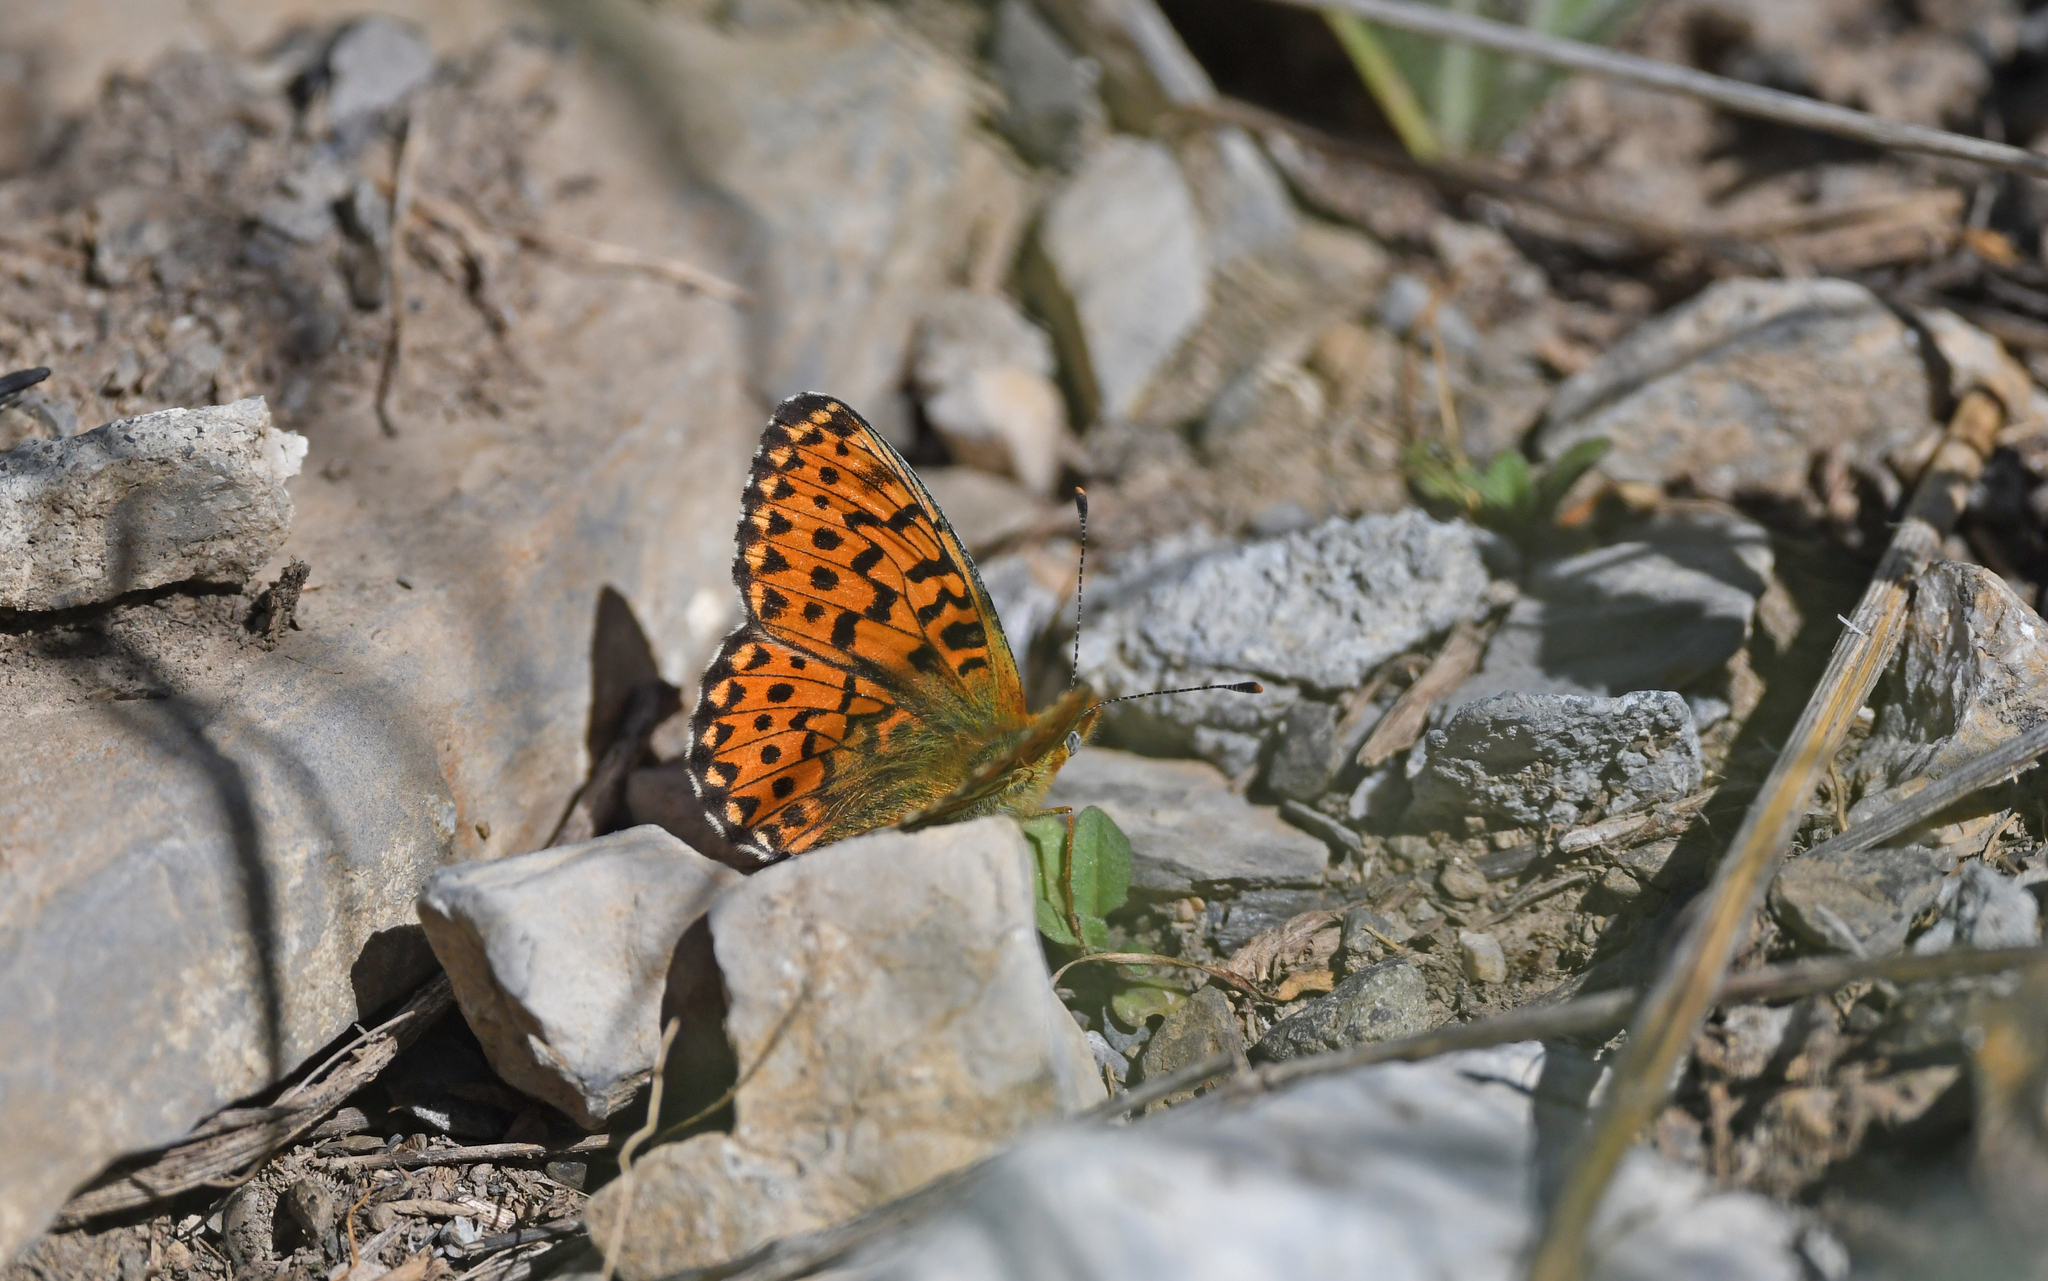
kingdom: Animalia
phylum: Arthropoda
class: Insecta
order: Lepidoptera
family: Nymphalidae
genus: Clossiana
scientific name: Clossiana euphrosyne
